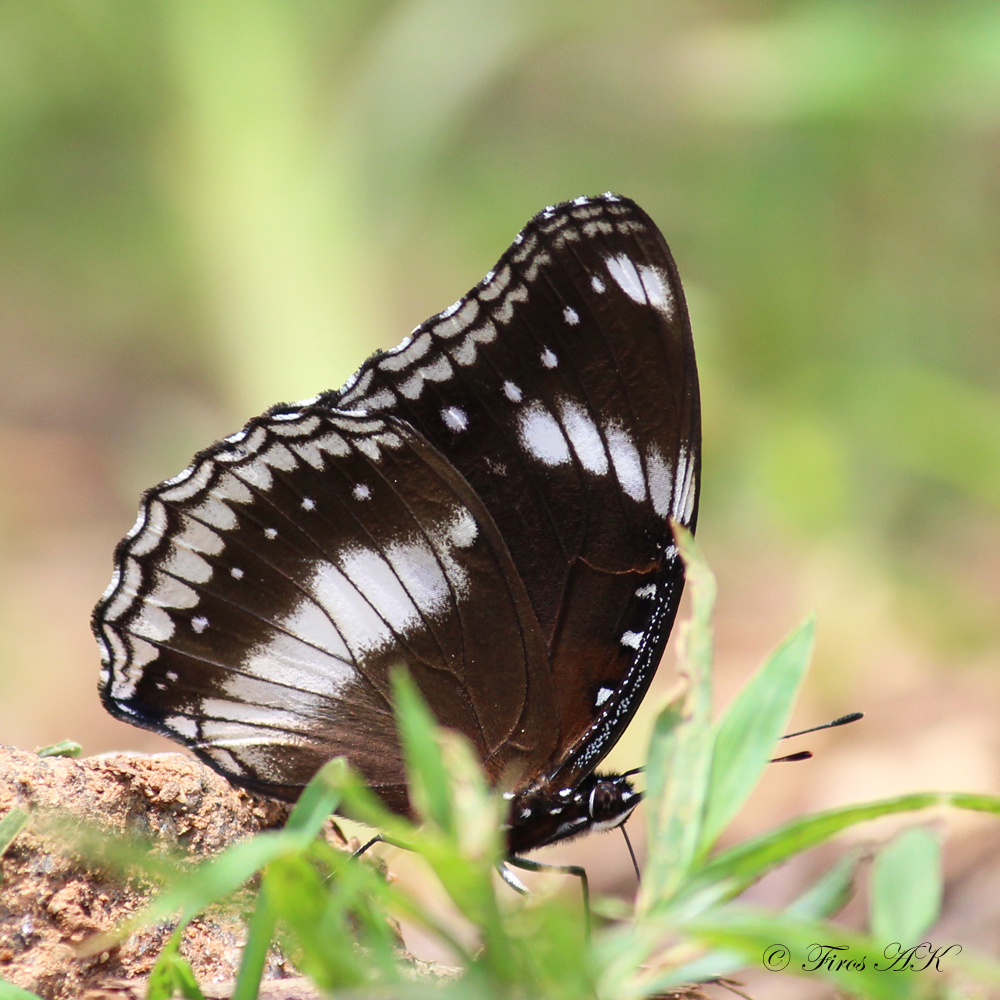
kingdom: Animalia
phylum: Arthropoda
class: Insecta
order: Lepidoptera
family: Nymphalidae
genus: Hypolimnas
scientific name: Hypolimnas bolina
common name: Great eggfly
